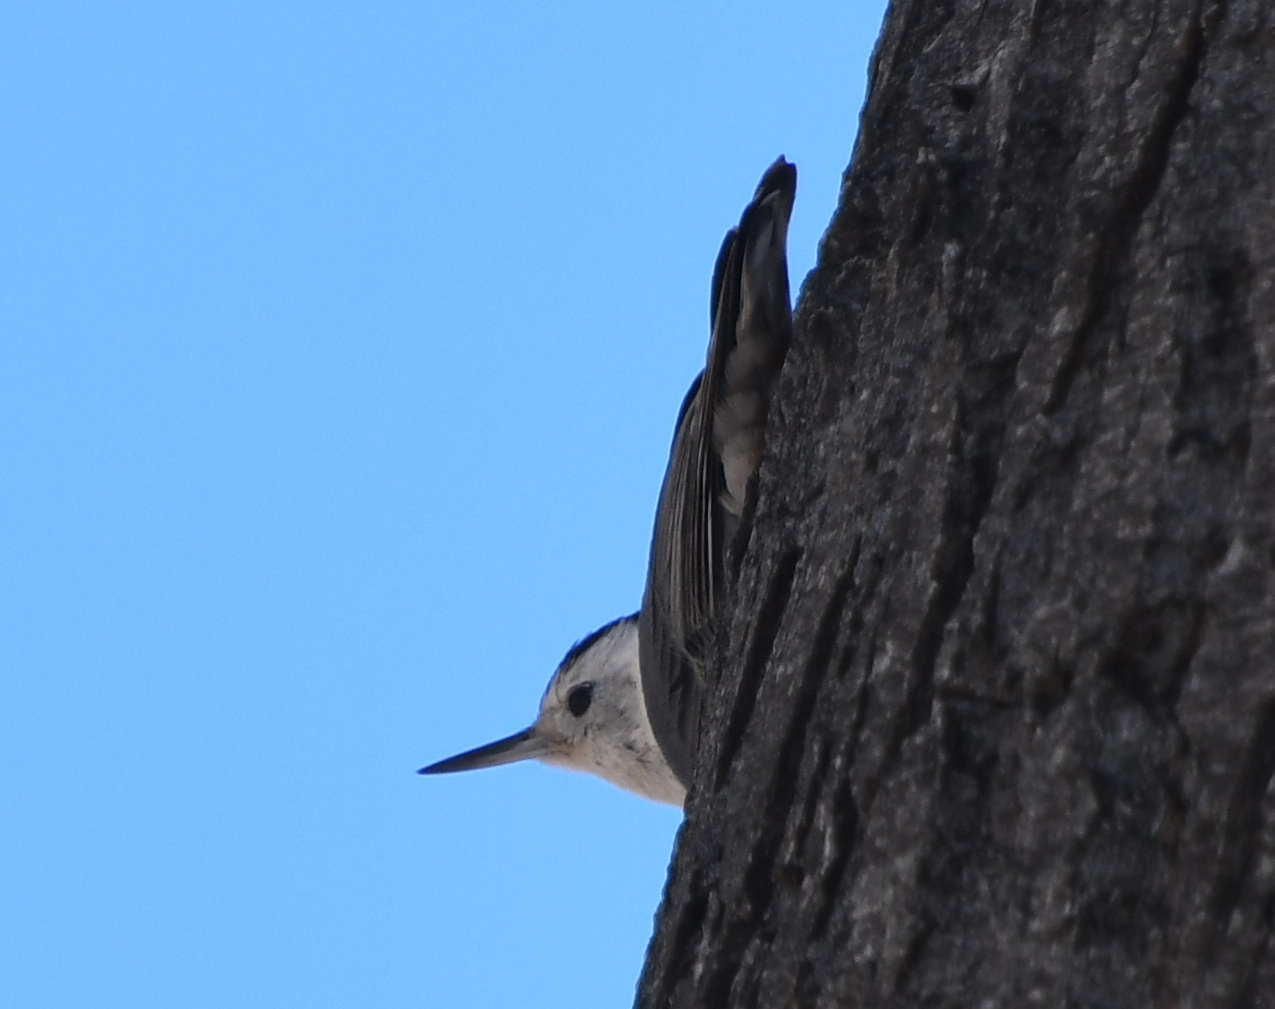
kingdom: Animalia
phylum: Chordata
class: Aves
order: Passeriformes
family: Sittidae
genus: Sitta
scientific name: Sitta carolinensis
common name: White-breasted nuthatch
